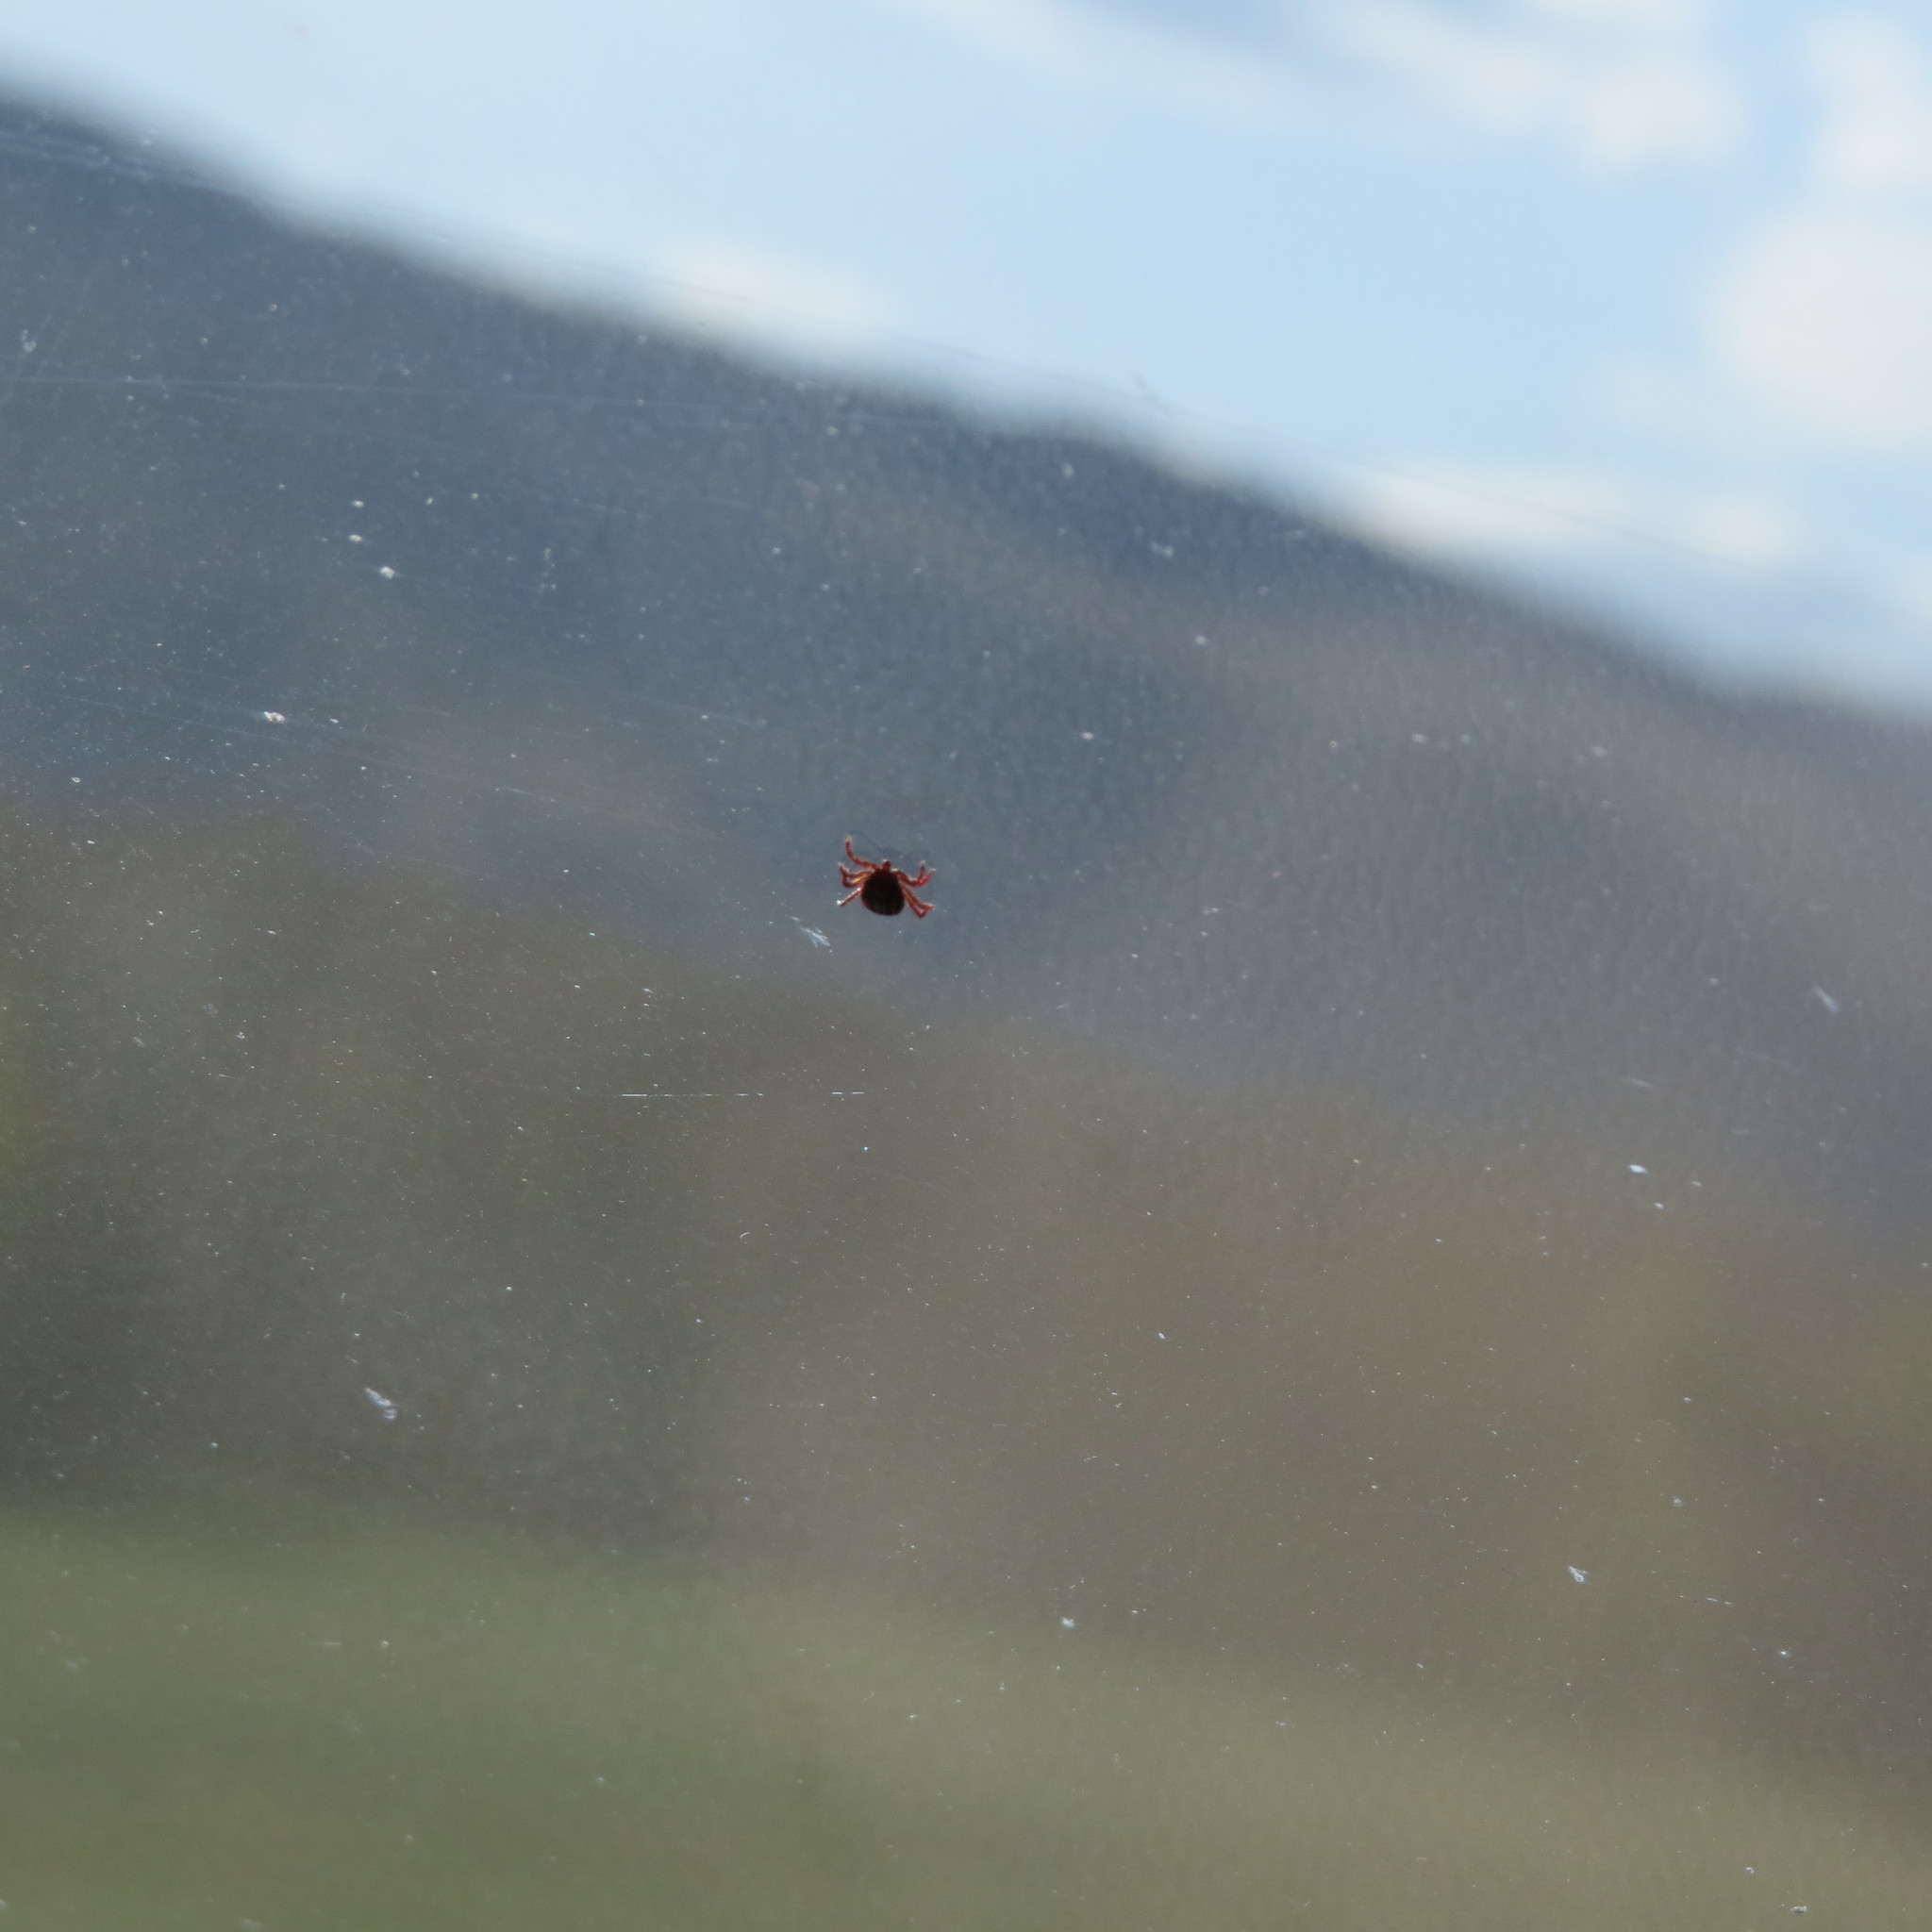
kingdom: Animalia
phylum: Arthropoda
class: Arachnida
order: Ixodida
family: Ixodidae
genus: Dermacentor
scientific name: Dermacentor reticulatus
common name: Ornate cow tick
